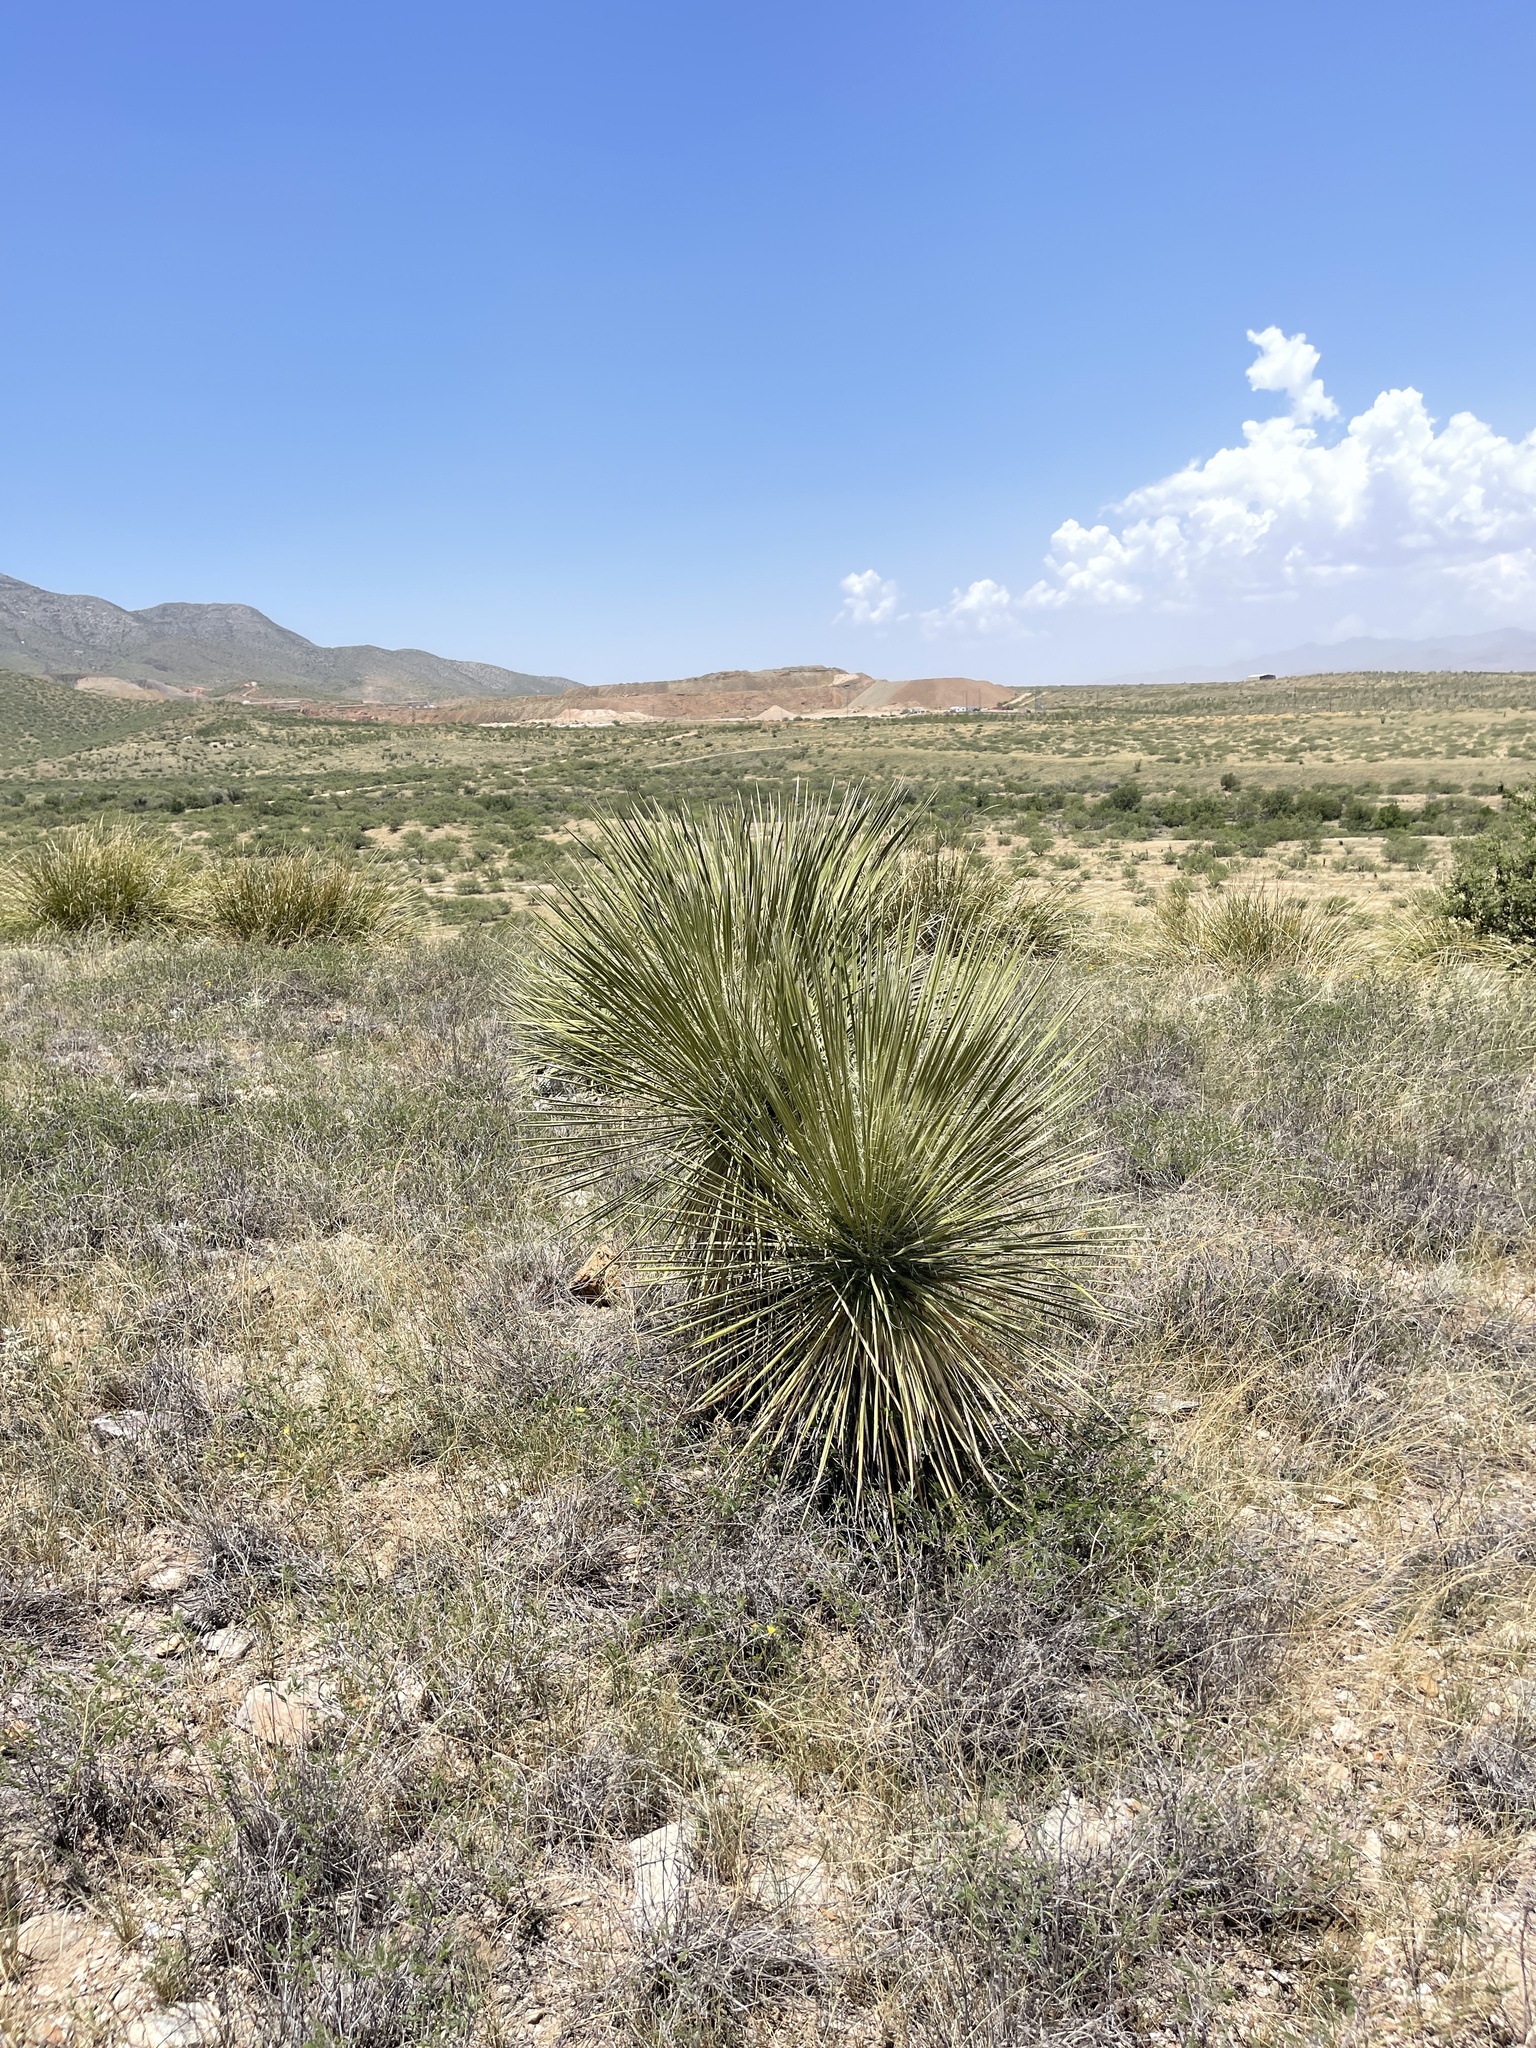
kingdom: Plantae
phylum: Tracheophyta
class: Liliopsida
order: Asparagales
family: Asparagaceae
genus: Yucca
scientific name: Yucca elata
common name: Palmella
